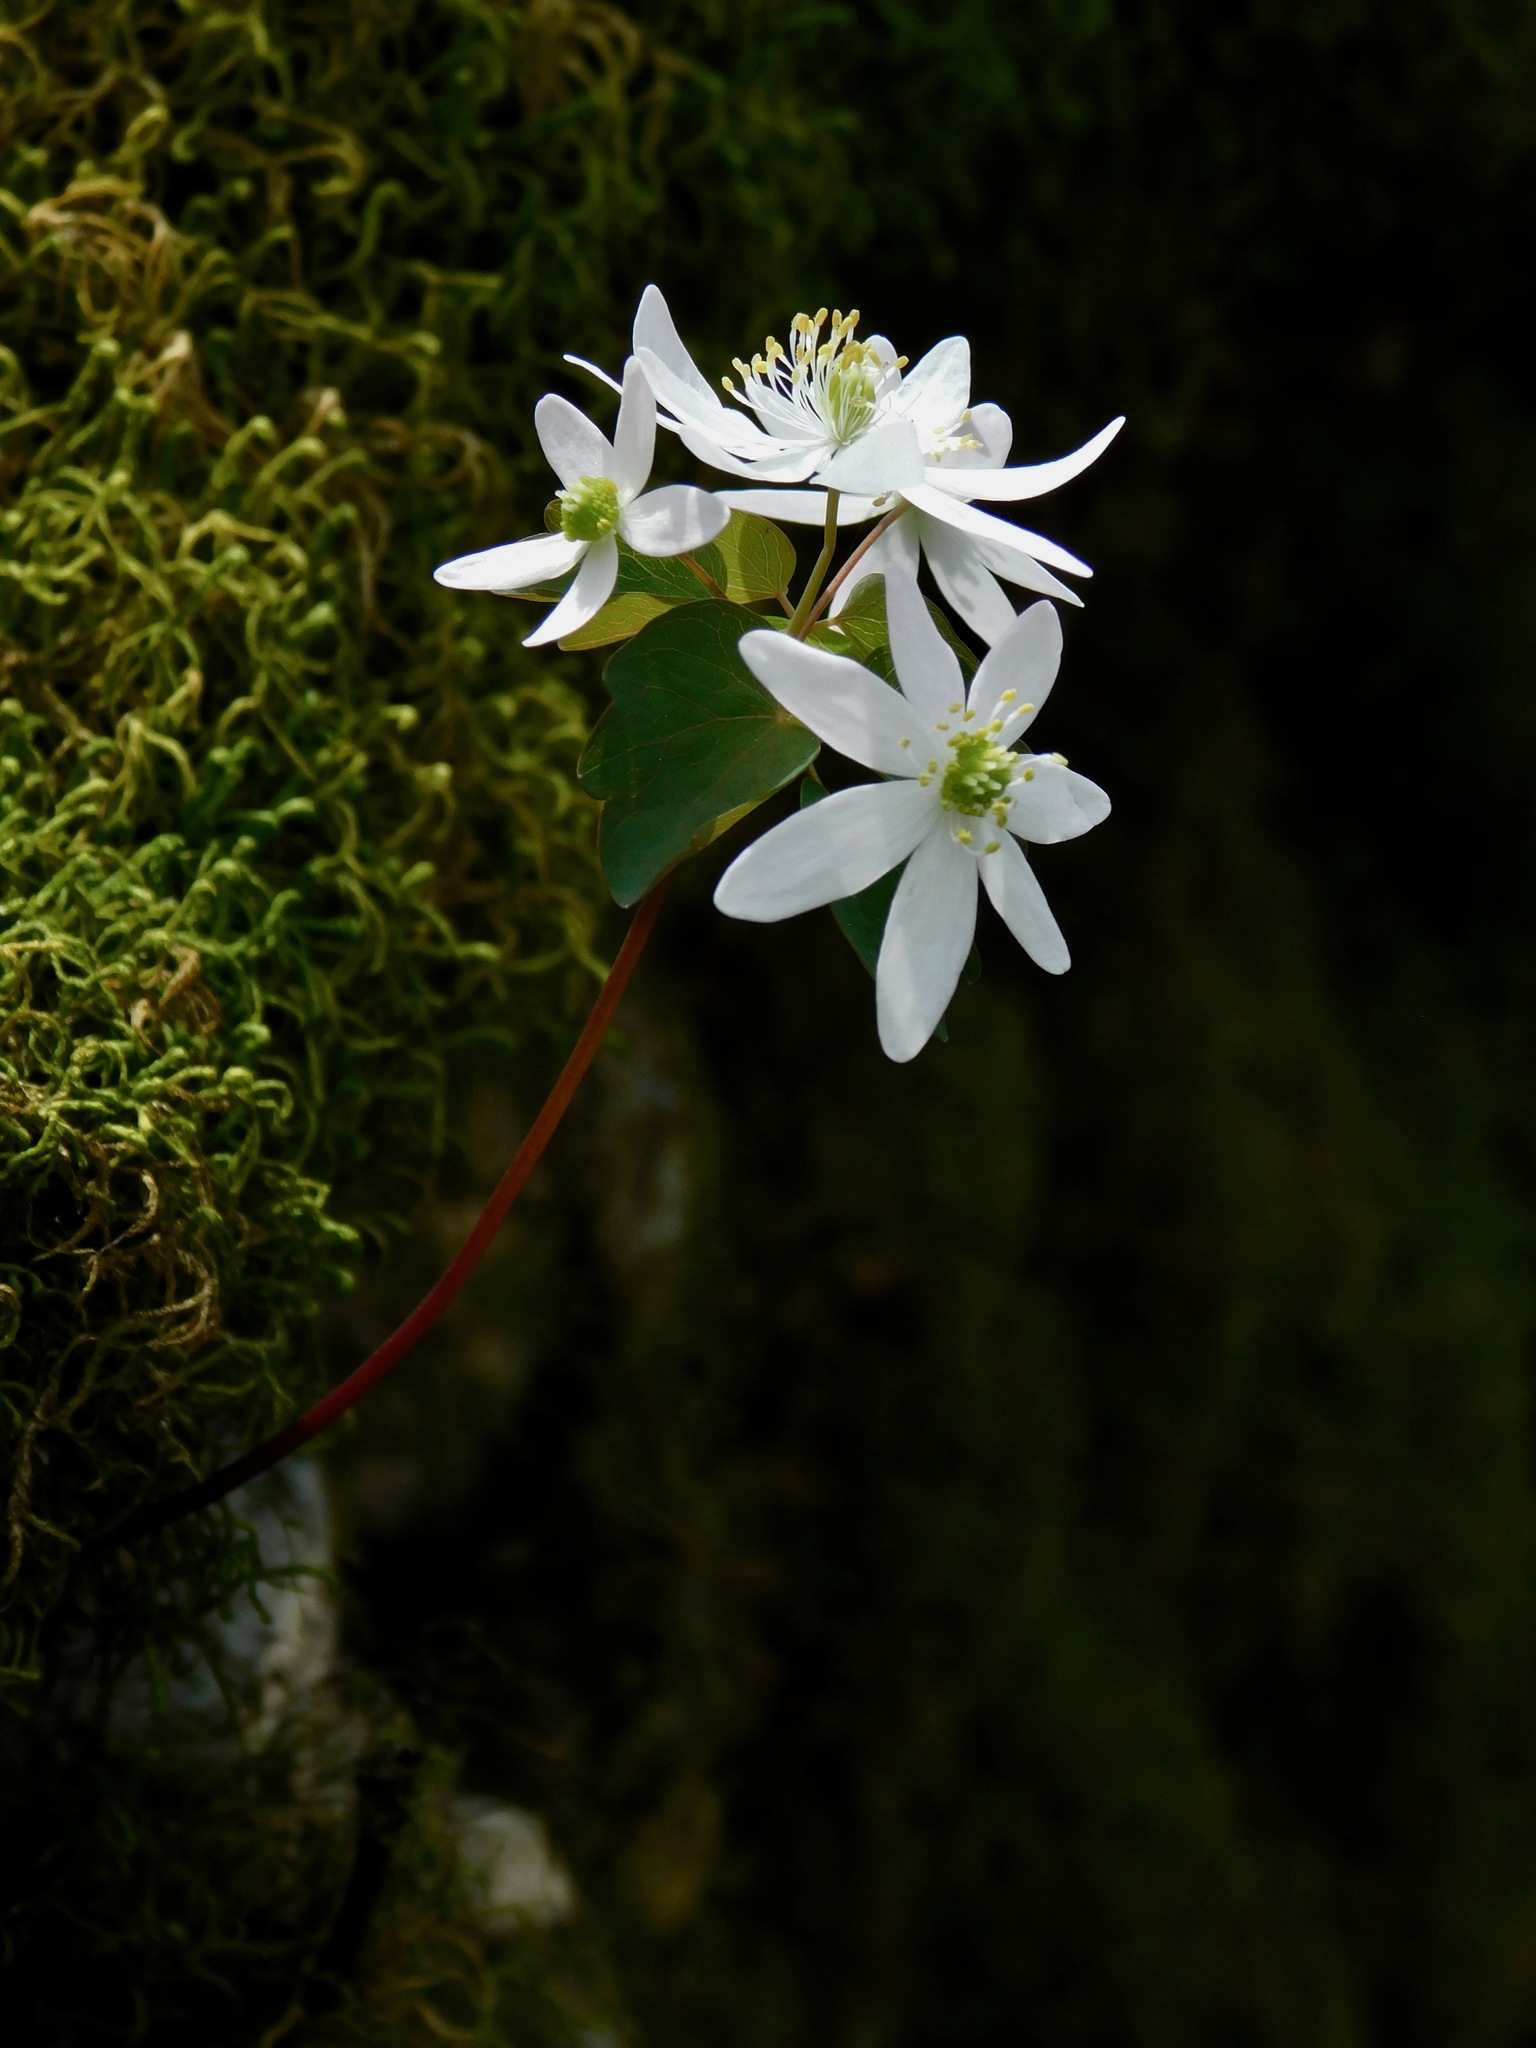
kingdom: Plantae
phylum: Tracheophyta
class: Magnoliopsida
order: Ranunculales
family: Ranunculaceae
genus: Thalictrum
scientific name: Thalictrum thalictroides
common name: Rue-anemone
